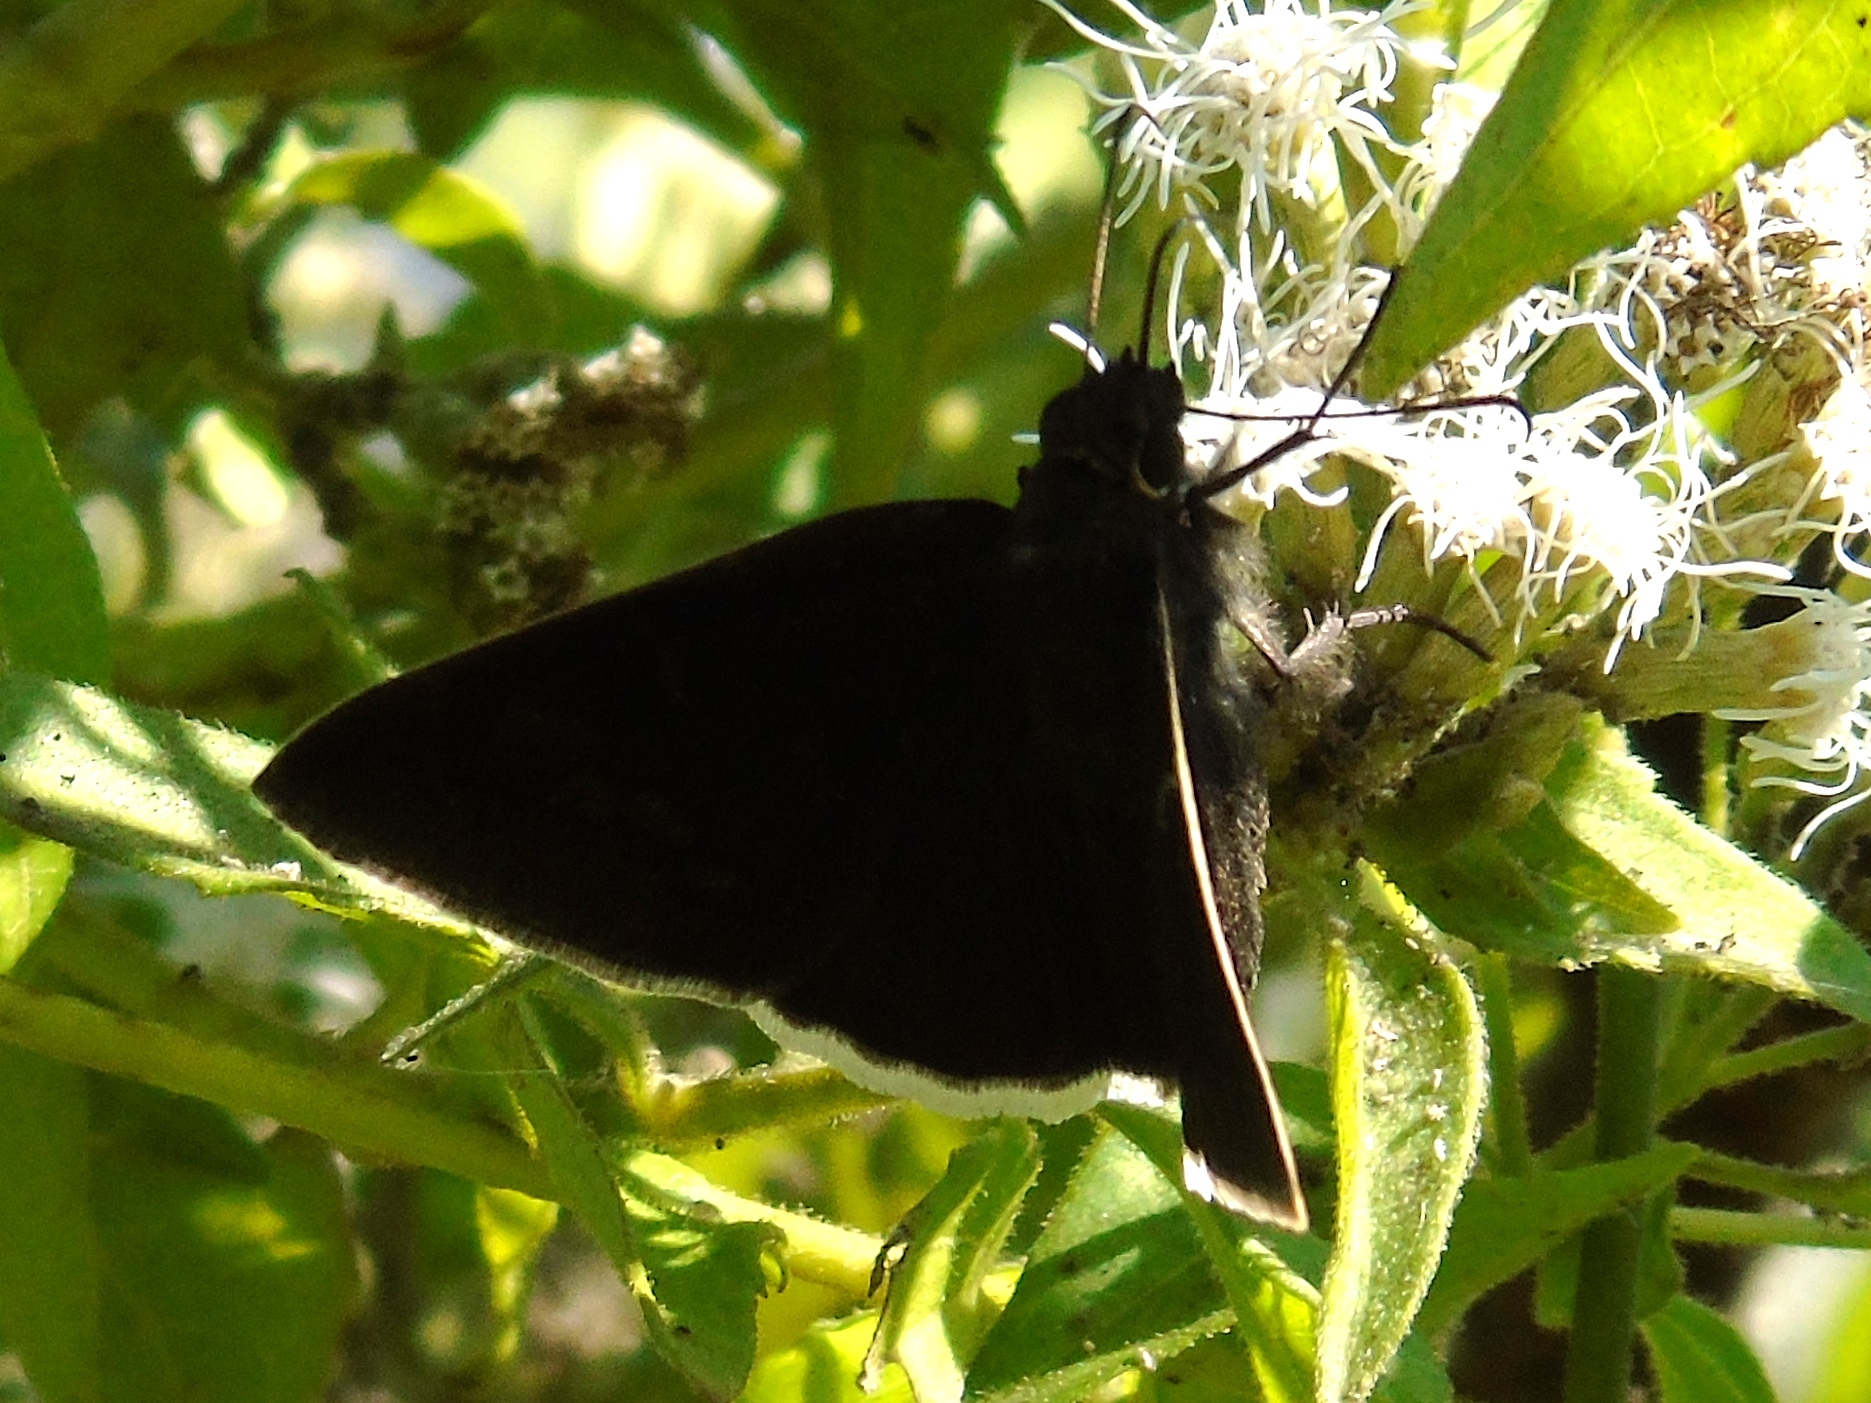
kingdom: Animalia
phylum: Arthropoda
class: Insecta
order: Lepidoptera
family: Hesperiidae
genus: Achalarus
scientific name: Achalarus Murgaria albociliatus
